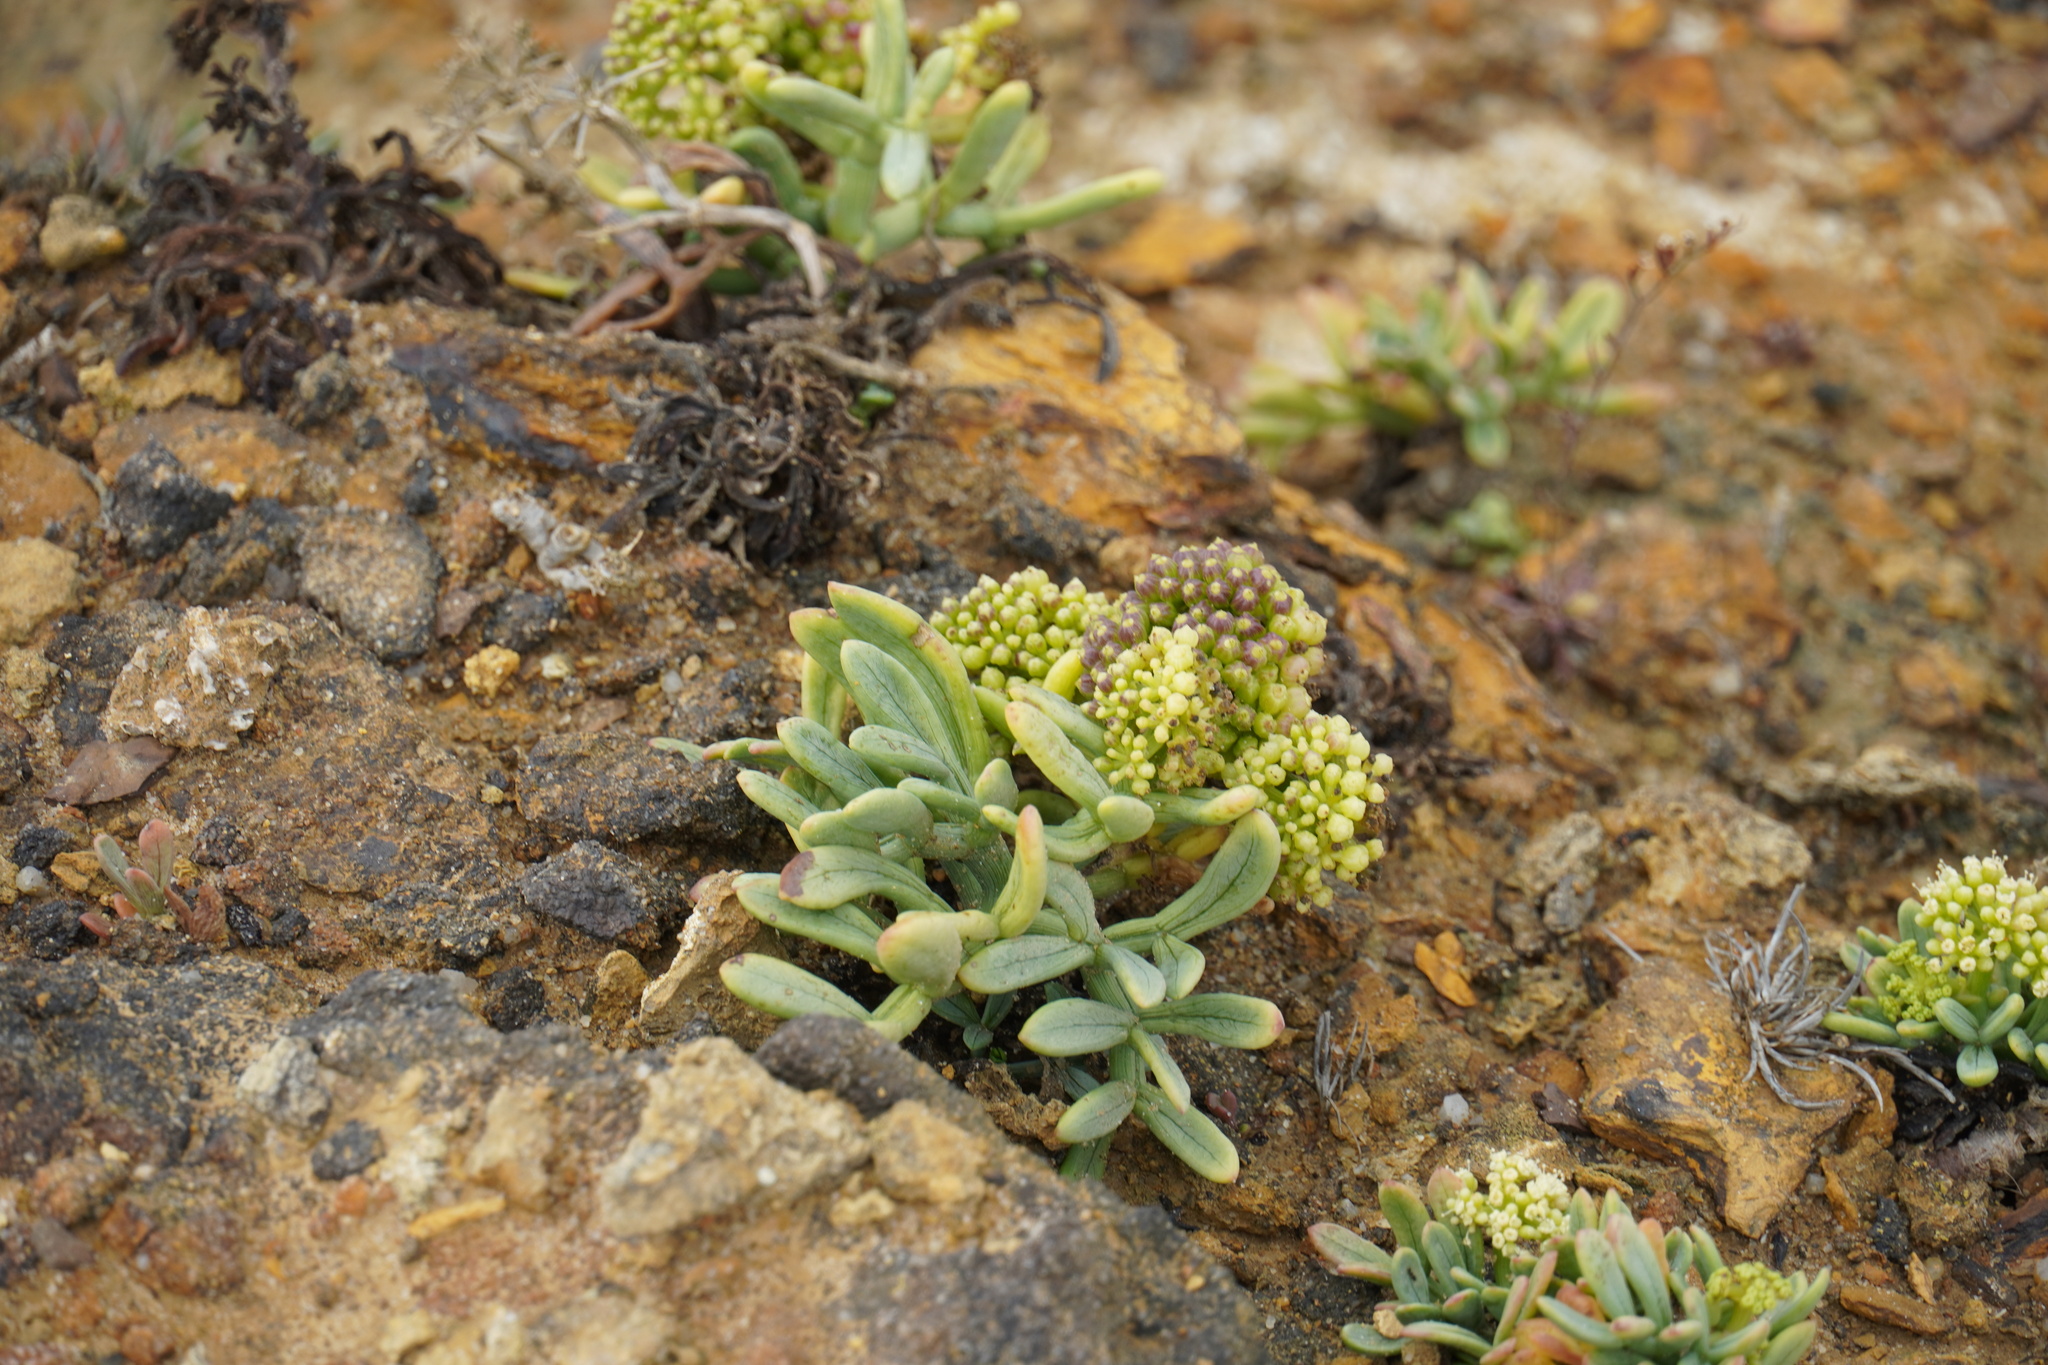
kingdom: Plantae
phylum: Tracheophyta
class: Magnoliopsida
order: Apiales
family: Apiaceae
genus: Crithmum
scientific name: Crithmum maritimum
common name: Rock samphire
